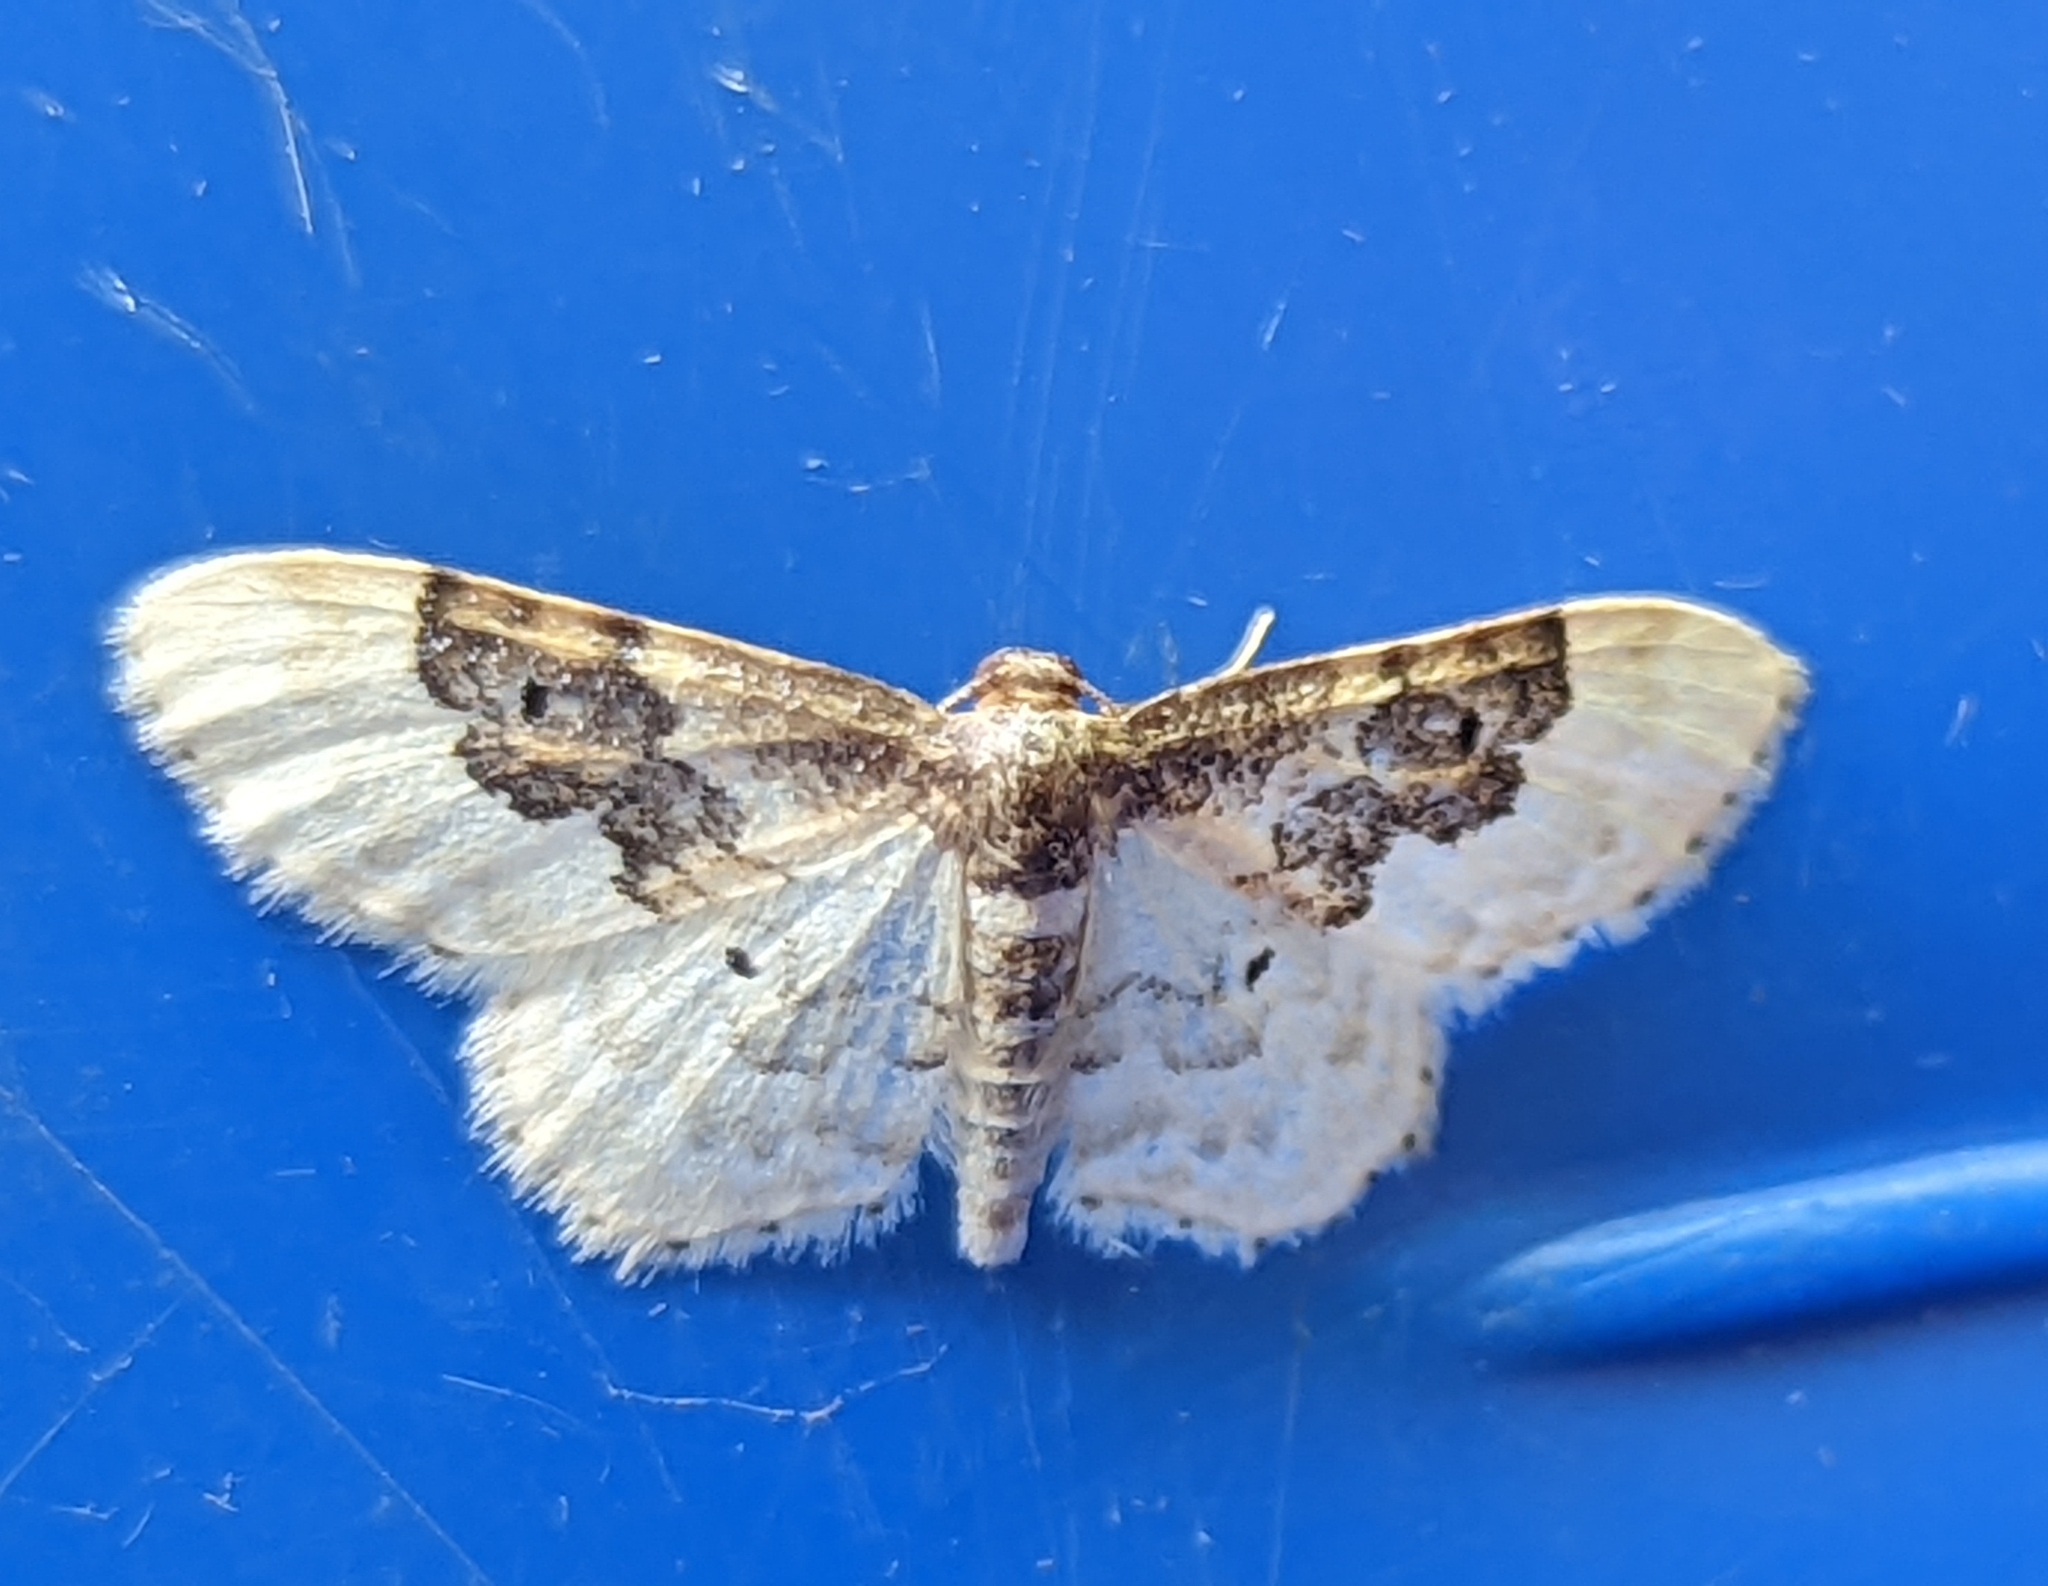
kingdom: Animalia
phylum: Arthropoda
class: Insecta
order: Lepidoptera
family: Geometridae
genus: Idaea
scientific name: Idaea rusticata
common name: Least carpet
